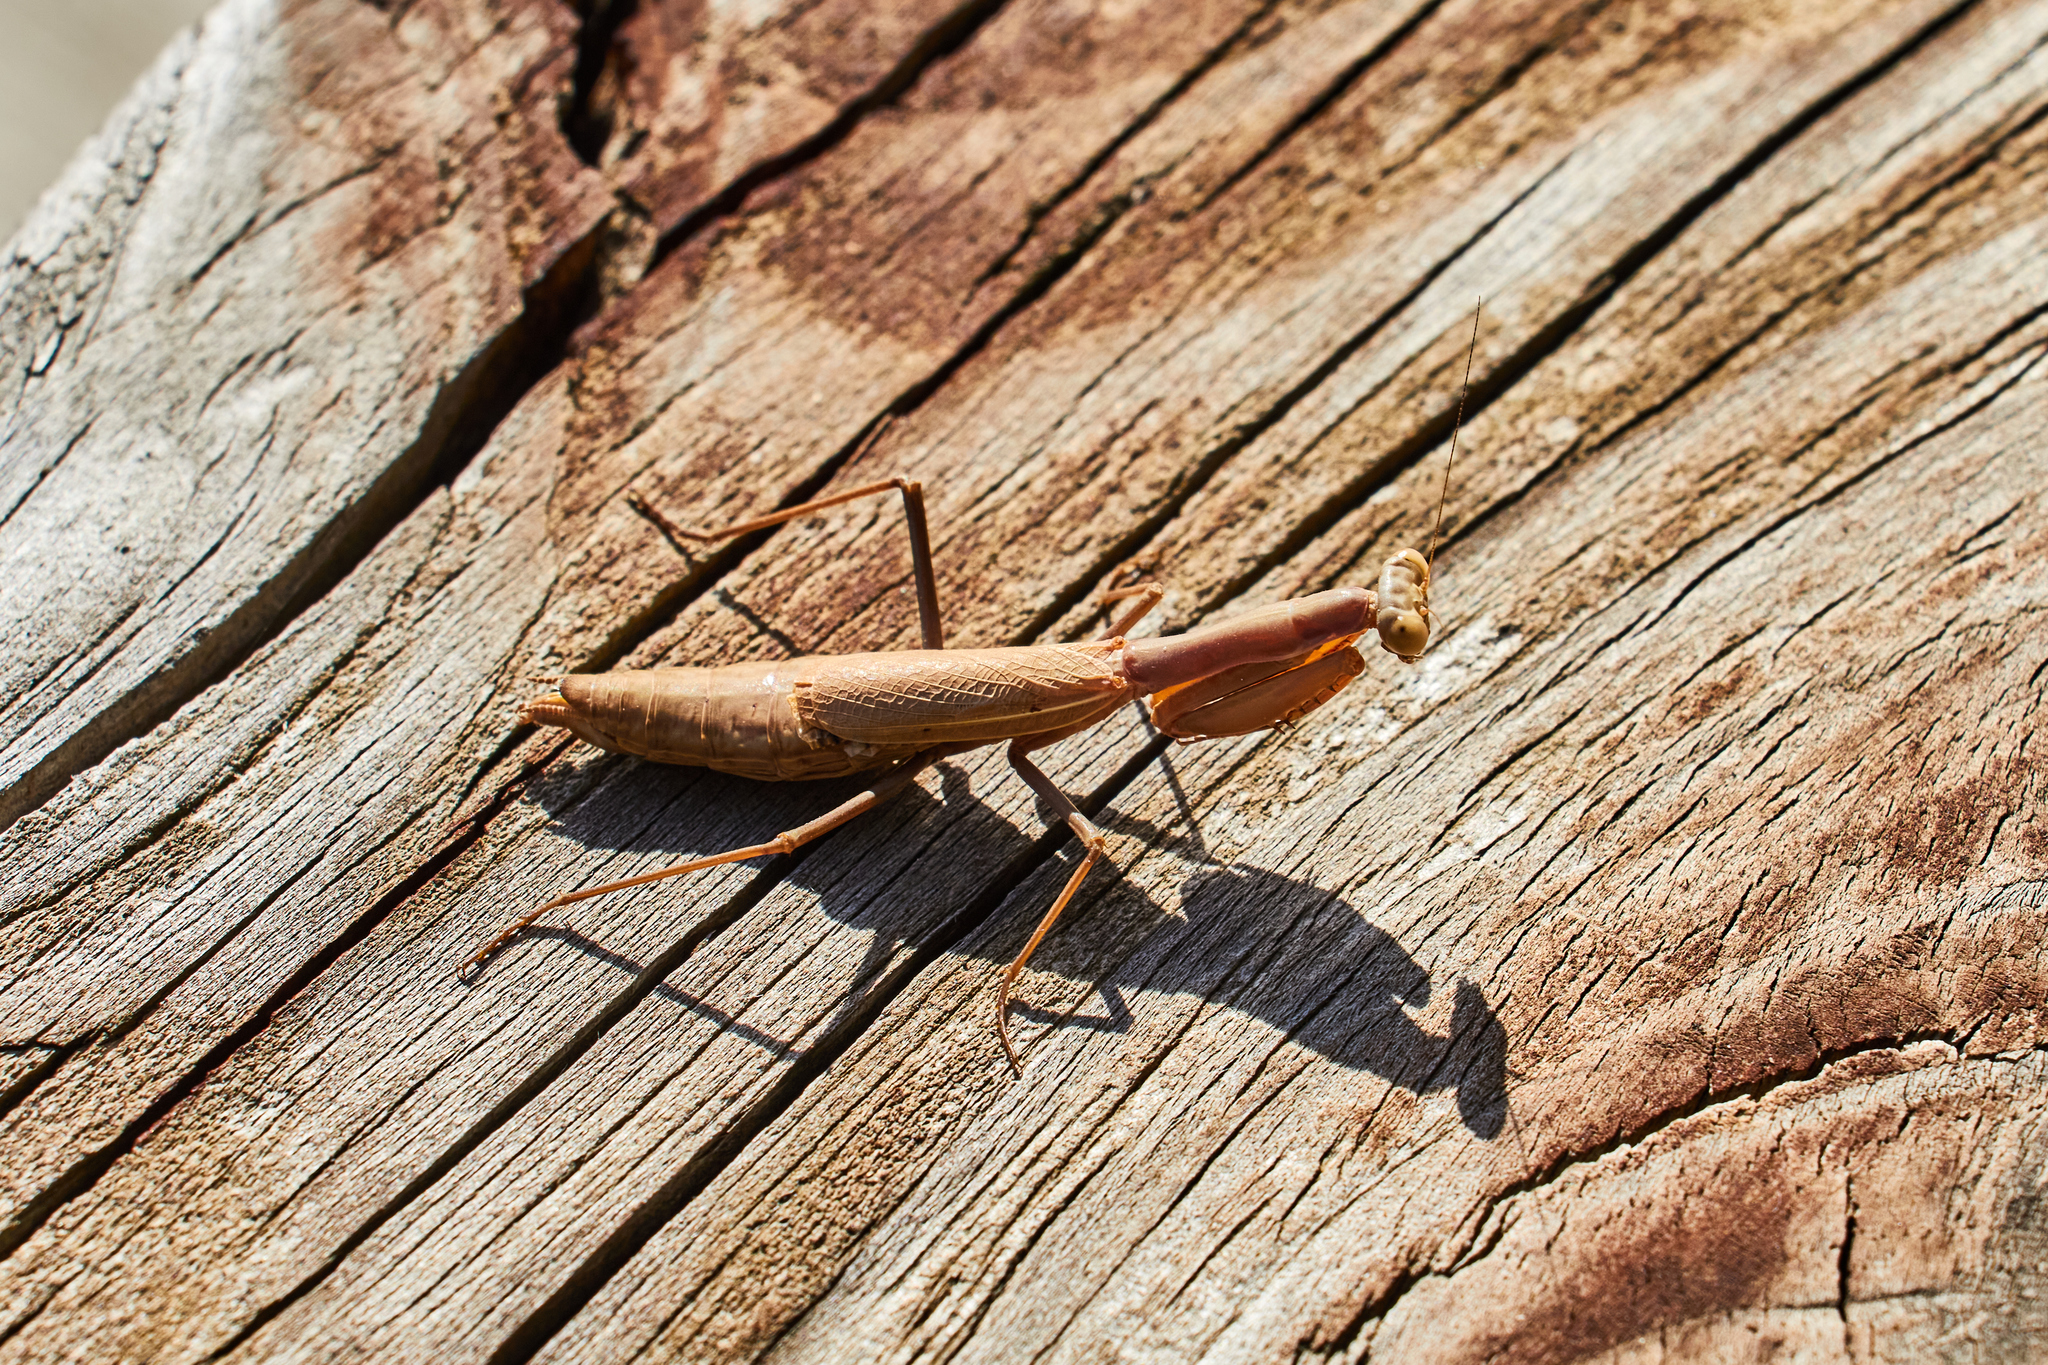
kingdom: Animalia
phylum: Arthropoda
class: Insecta
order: Mantodea
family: Eremiaphilidae
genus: Iris
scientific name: Iris polystictica
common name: Dot-winged mantis
